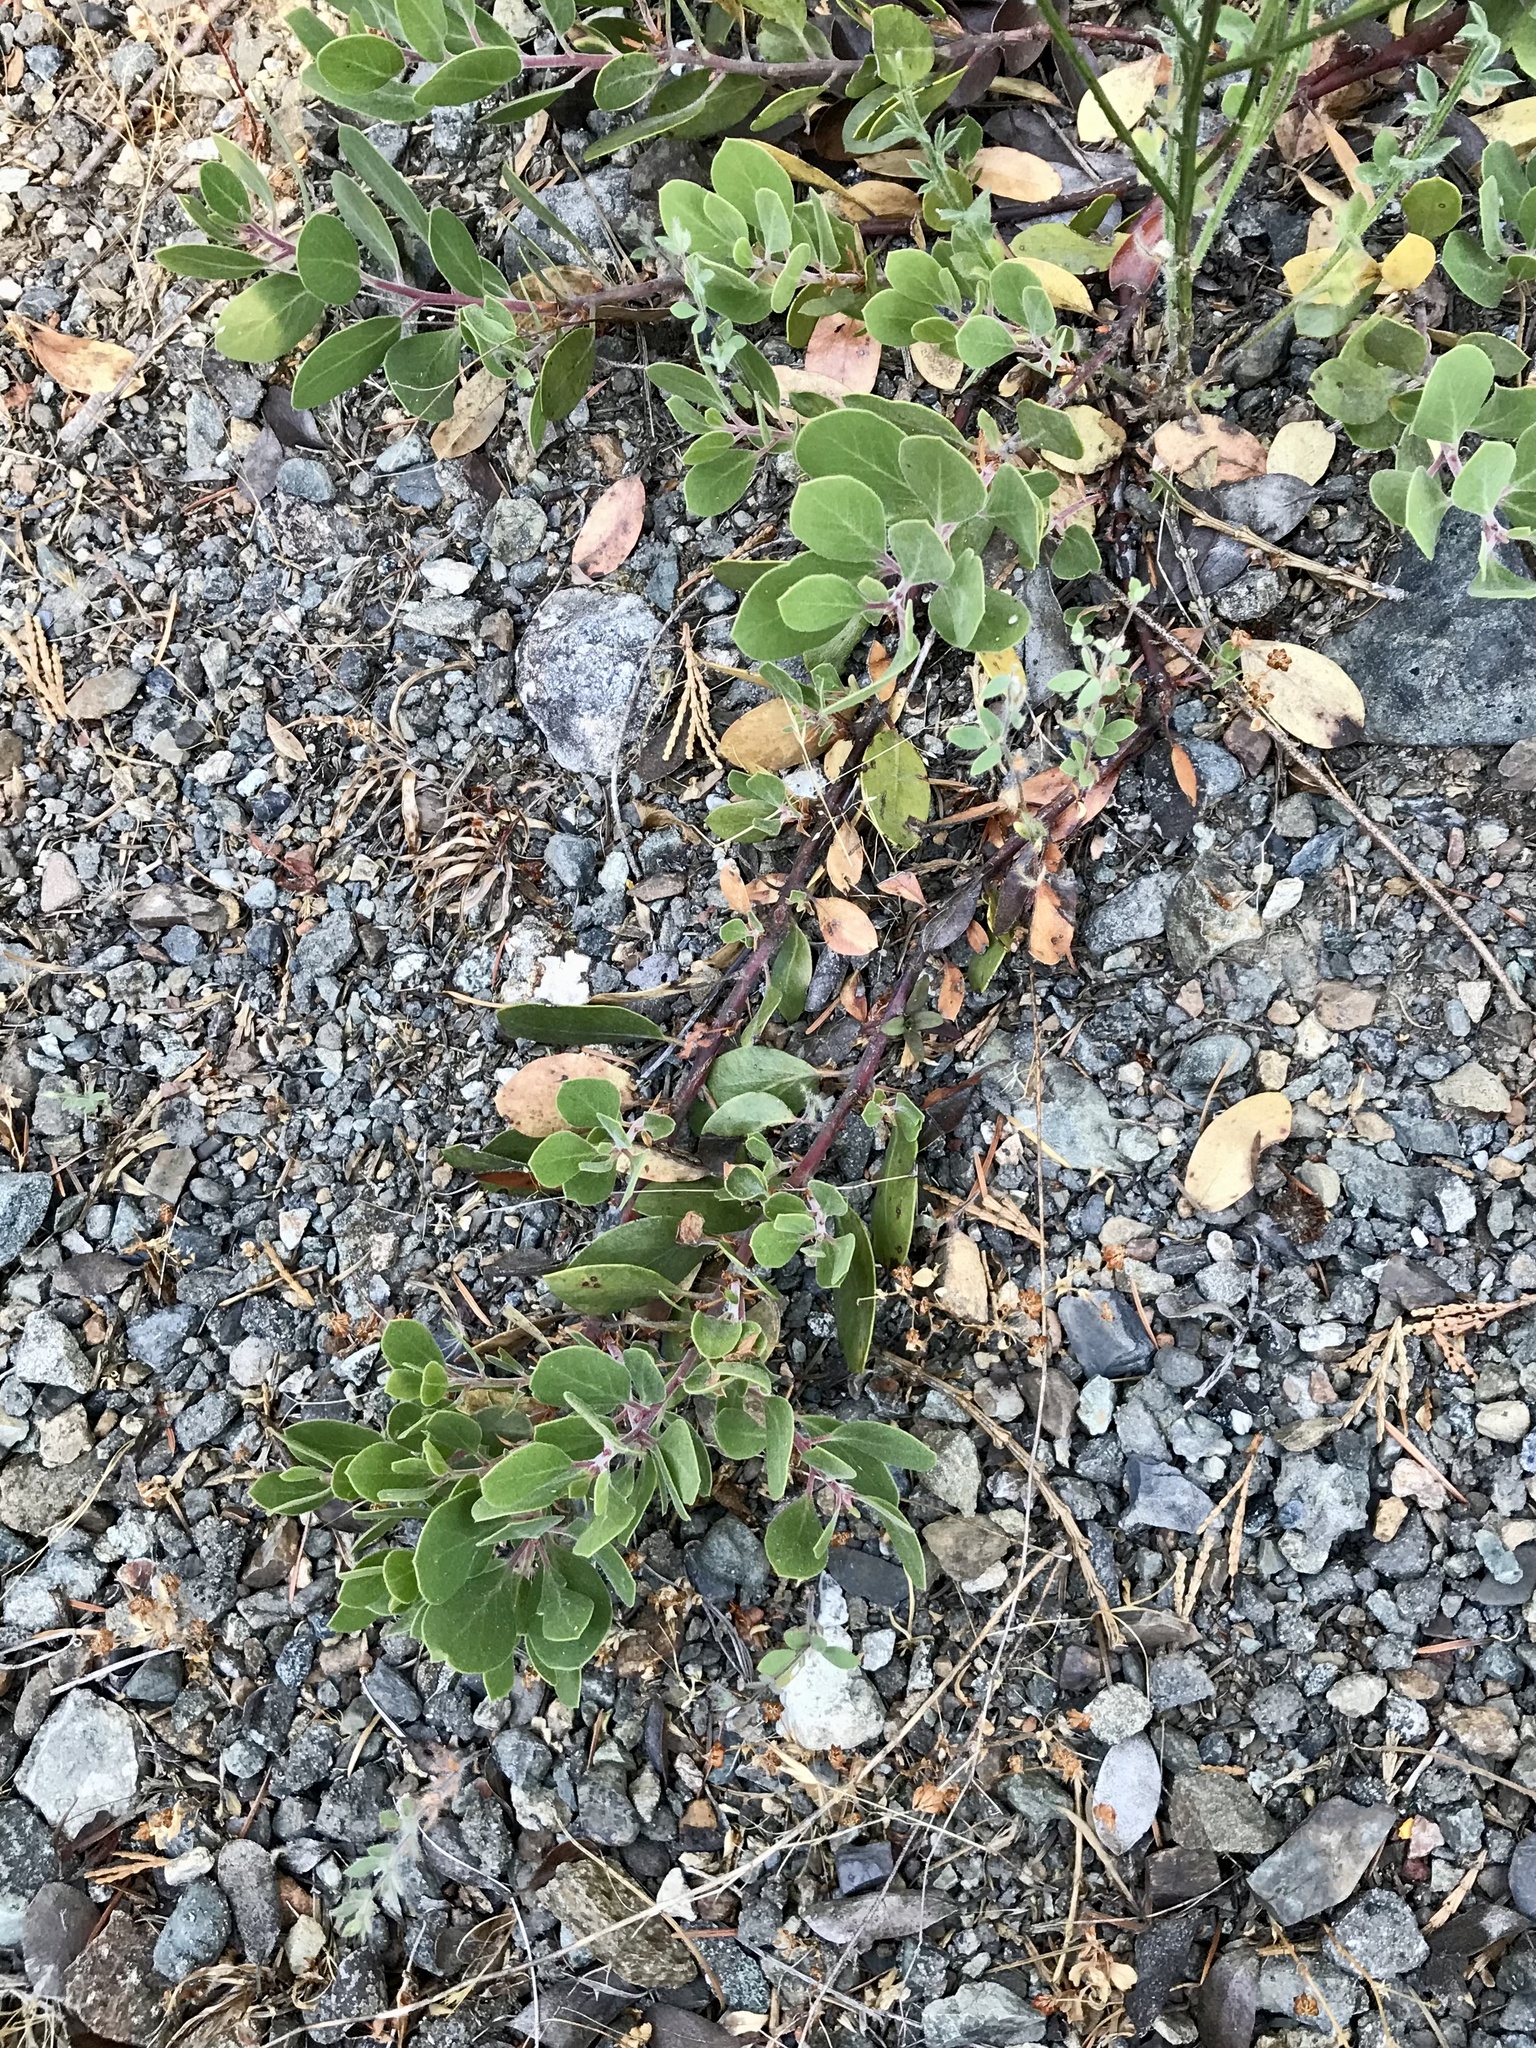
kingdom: Plantae
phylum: Tracheophyta
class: Magnoliopsida
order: Ericales
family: Ericaceae
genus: Arctostaphylos
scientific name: Arctostaphylos nevadensis
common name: Pinemat manzanita
